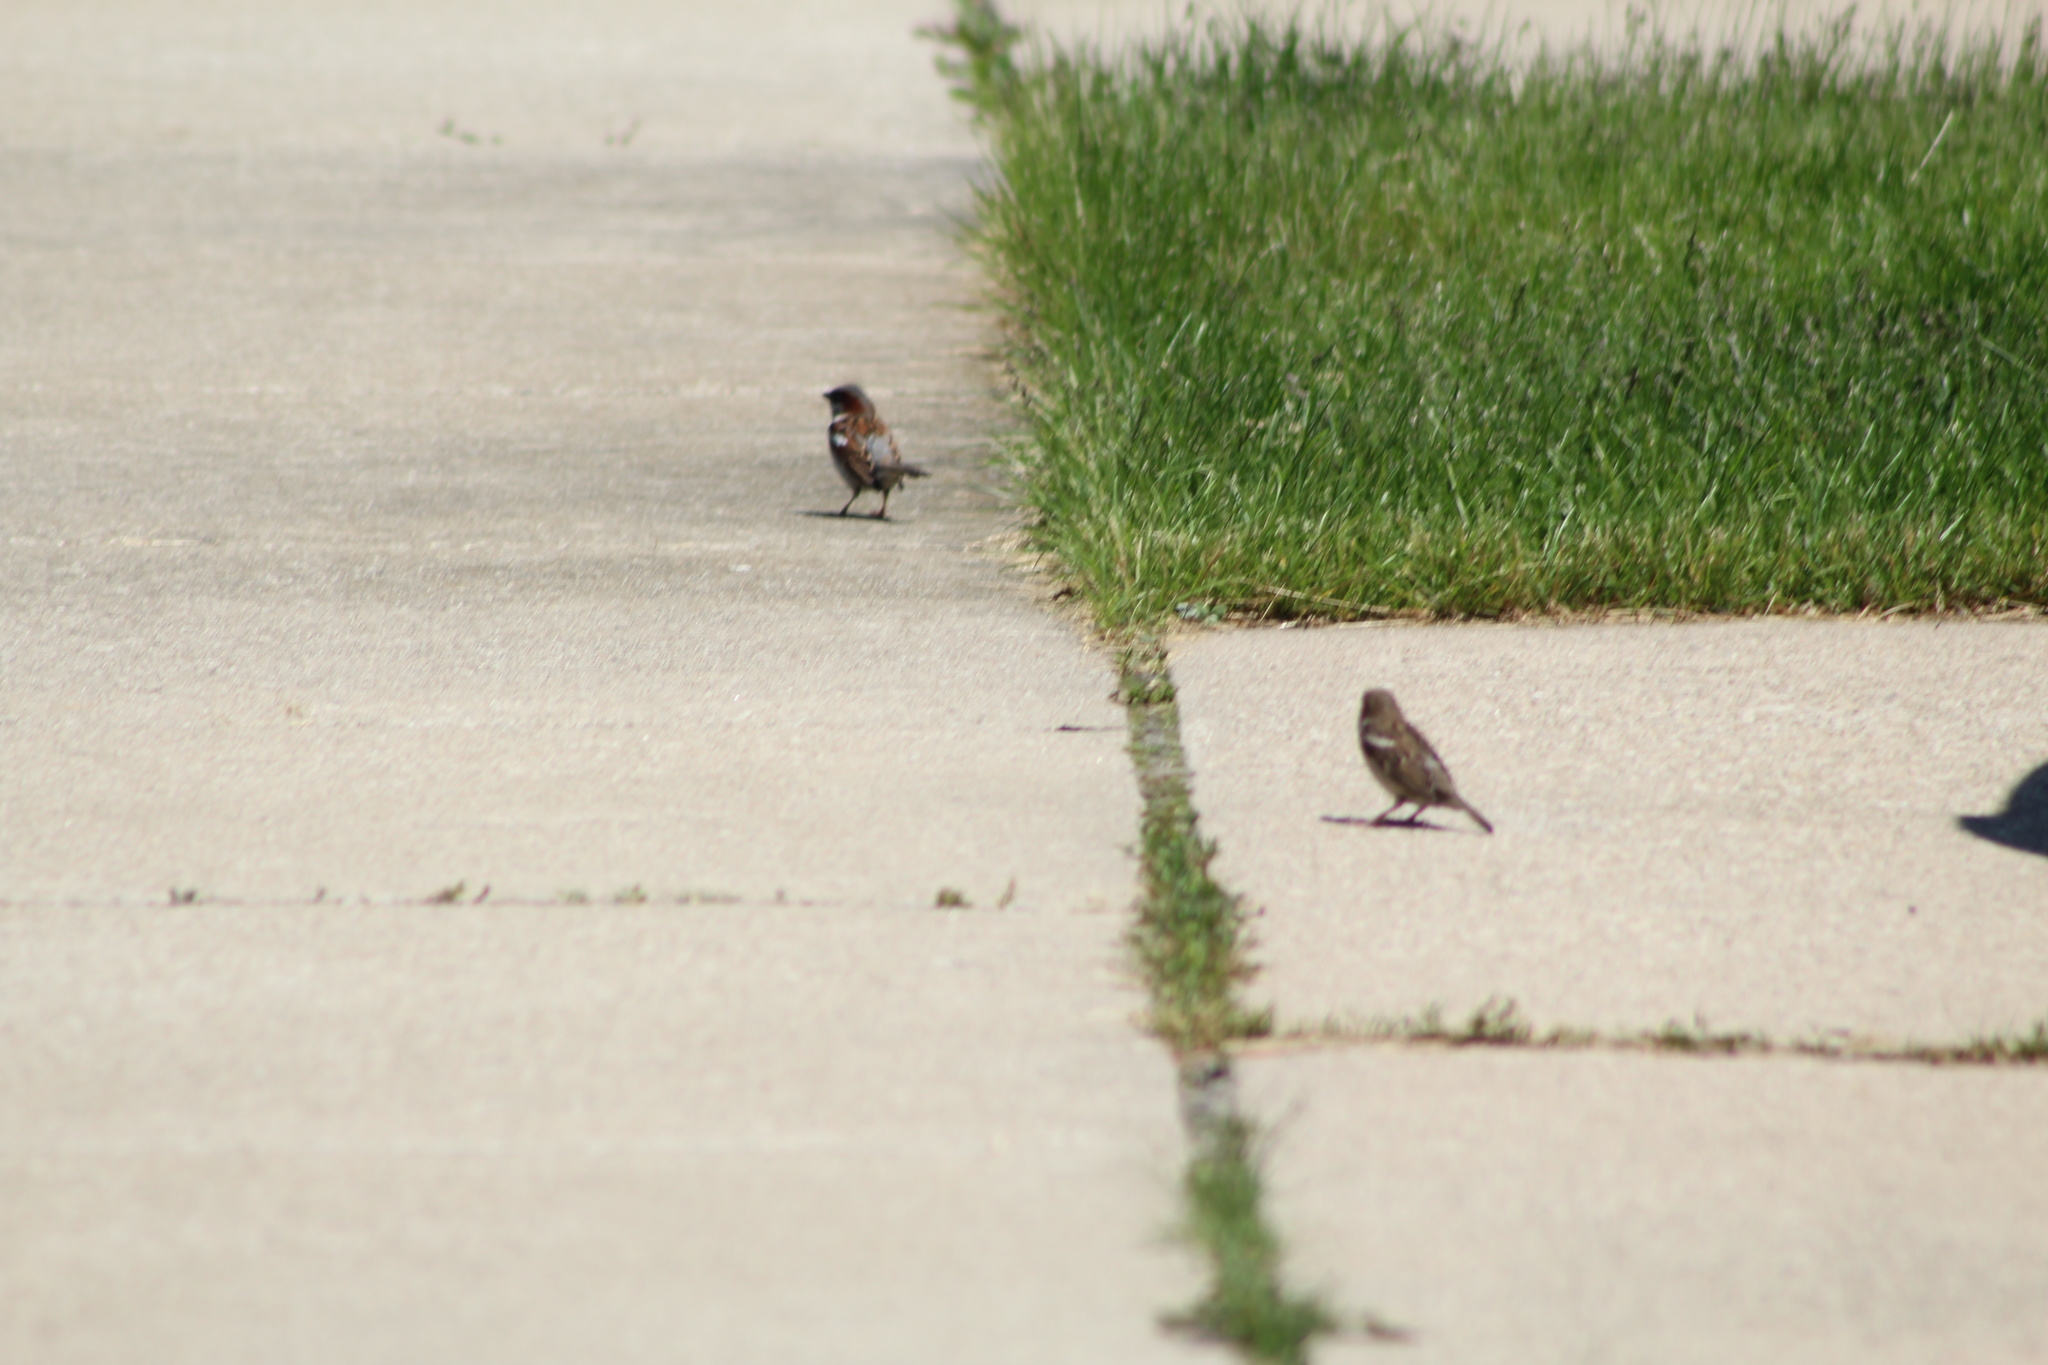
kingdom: Animalia
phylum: Chordata
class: Aves
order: Passeriformes
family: Passeridae
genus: Passer
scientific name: Passer domesticus
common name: House sparrow
